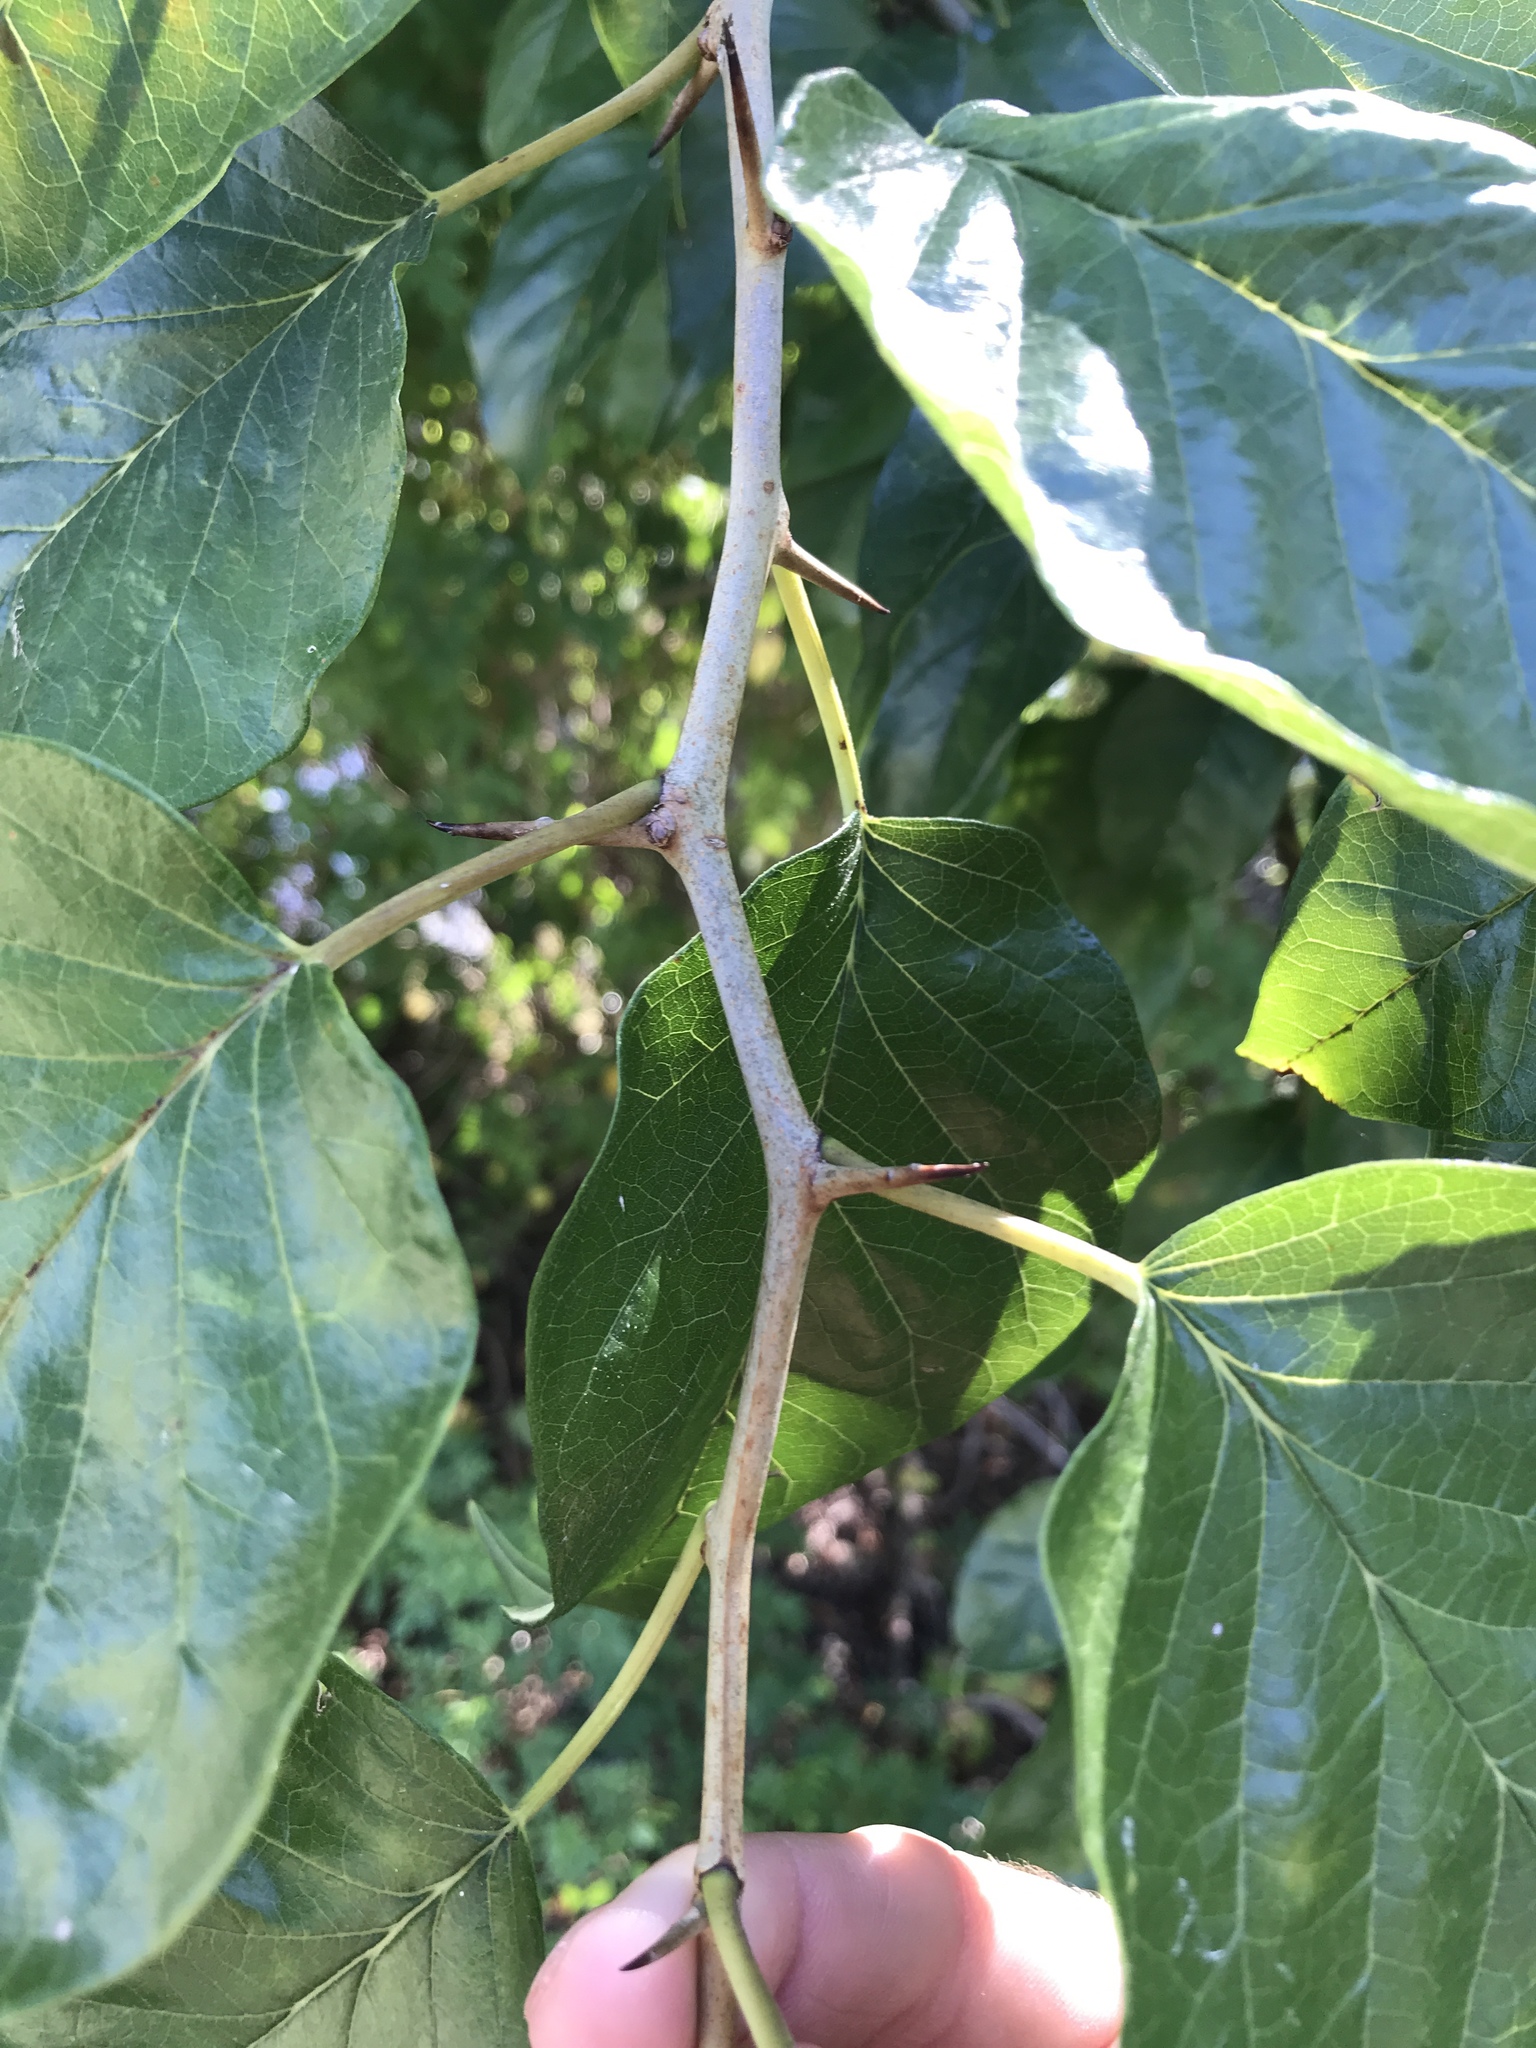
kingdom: Plantae
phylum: Tracheophyta
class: Magnoliopsida
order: Rosales
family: Moraceae
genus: Maclura
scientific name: Maclura pomifera
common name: Osage-orange
